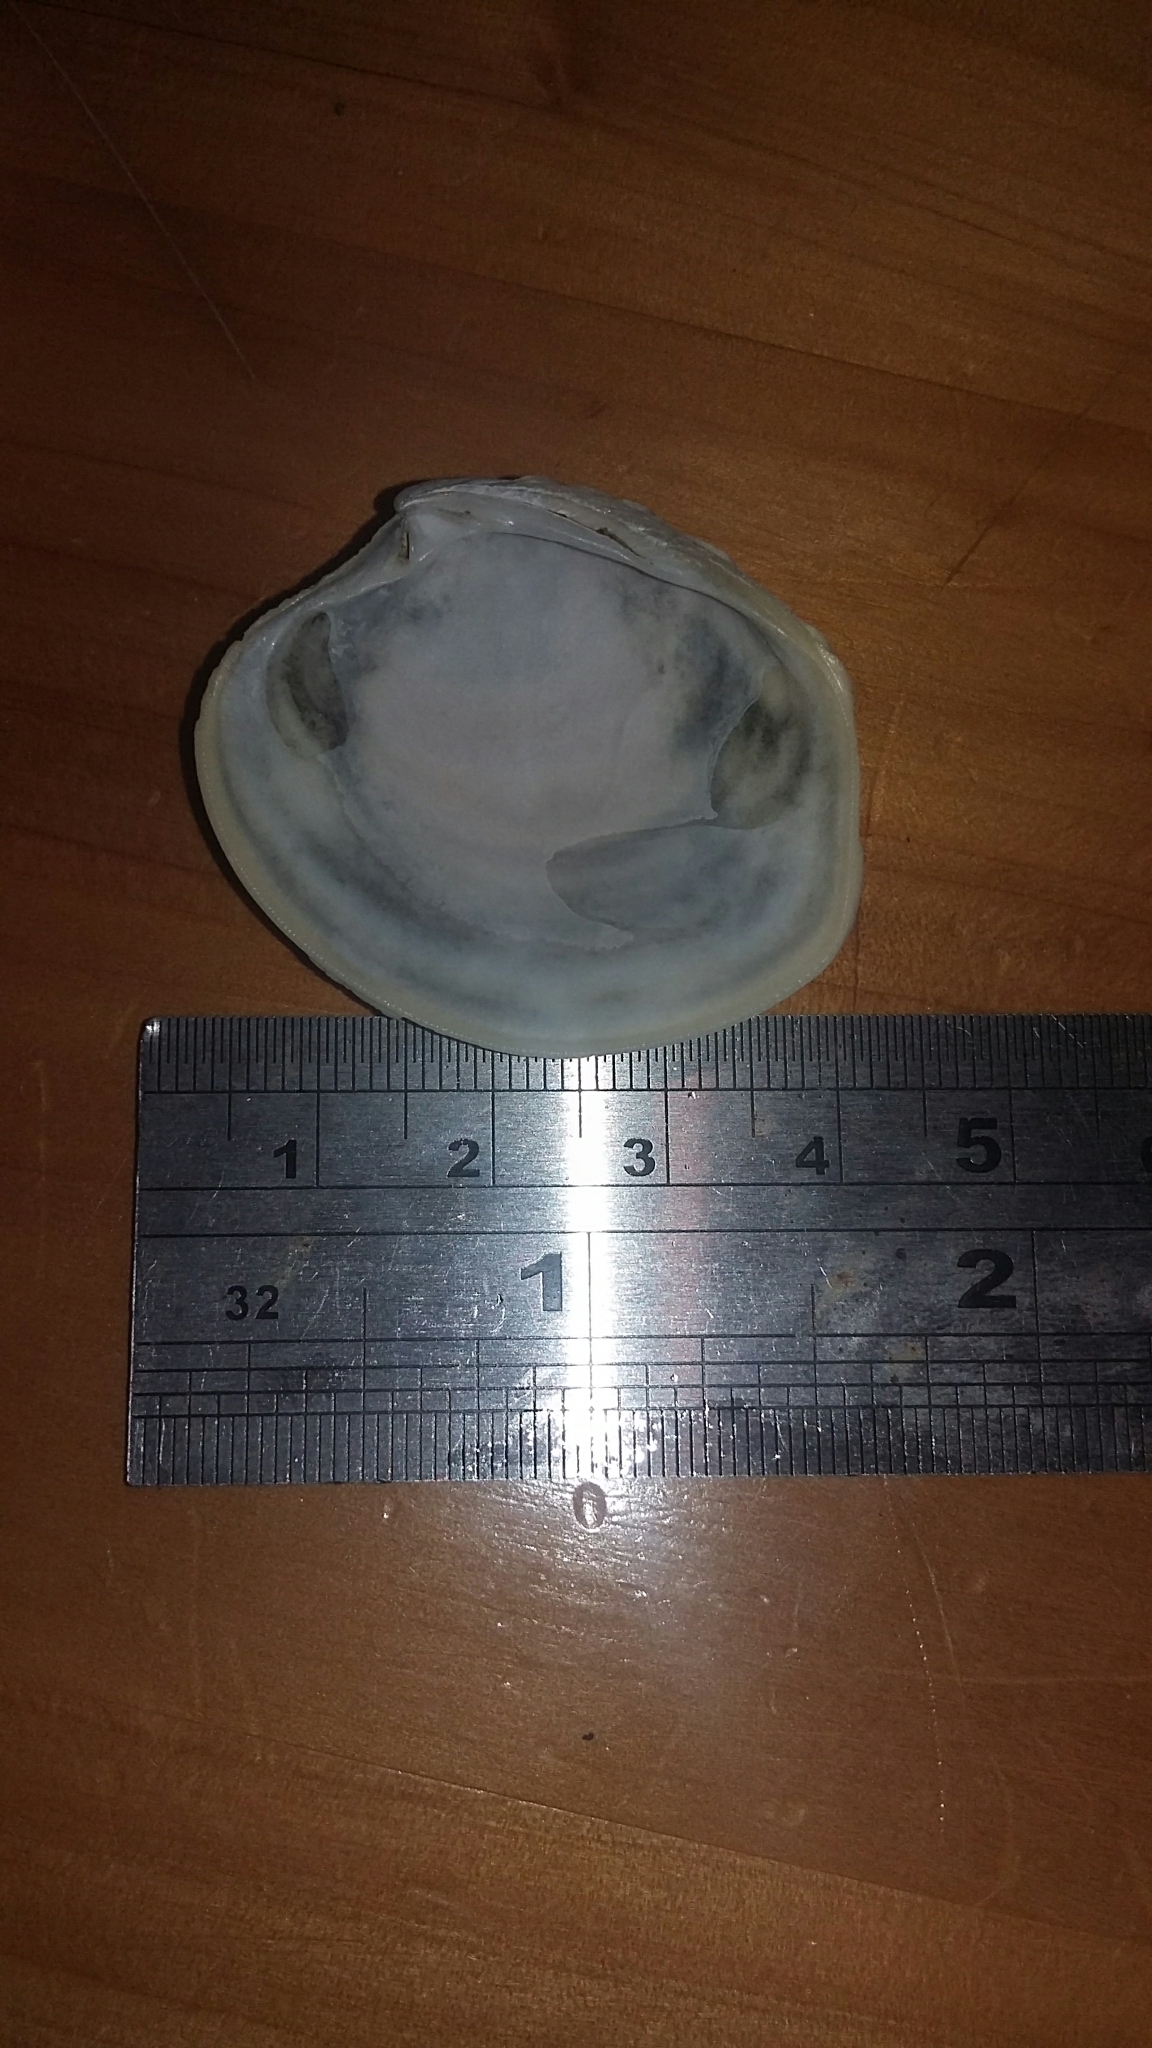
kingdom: Animalia
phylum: Mollusca
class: Bivalvia
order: Venerida
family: Veneridae
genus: Bassina
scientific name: Bassina yatei
